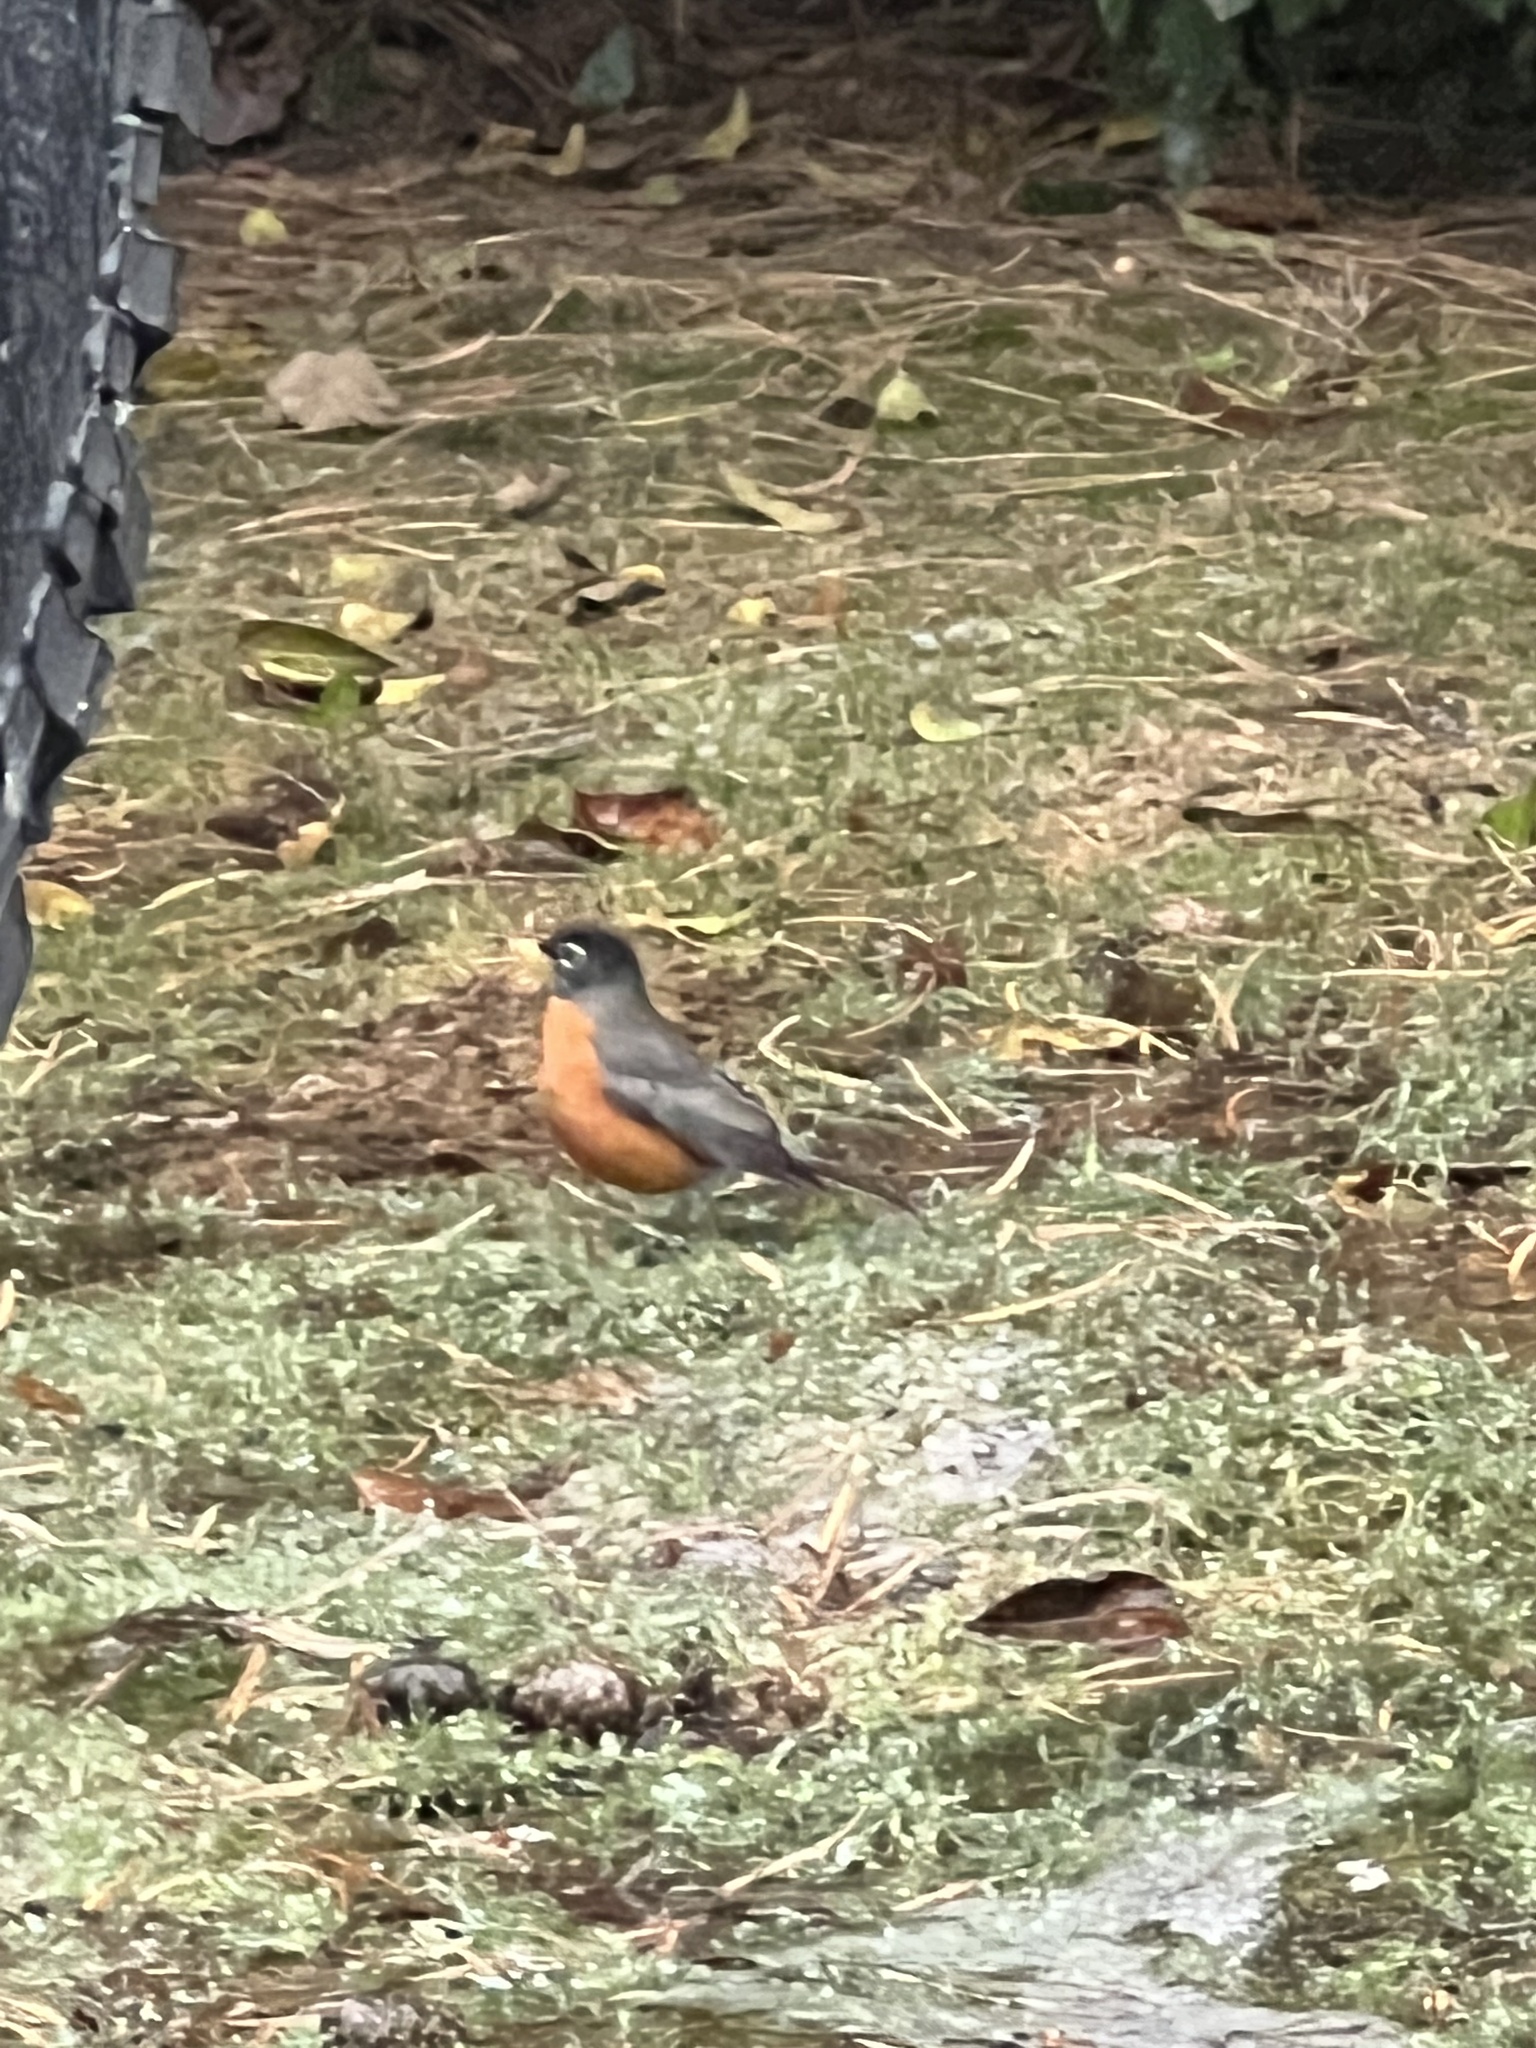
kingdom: Animalia
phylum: Chordata
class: Aves
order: Passeriformes
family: Turdidae
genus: Turdus
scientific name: Turdus migratorius
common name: American robin
